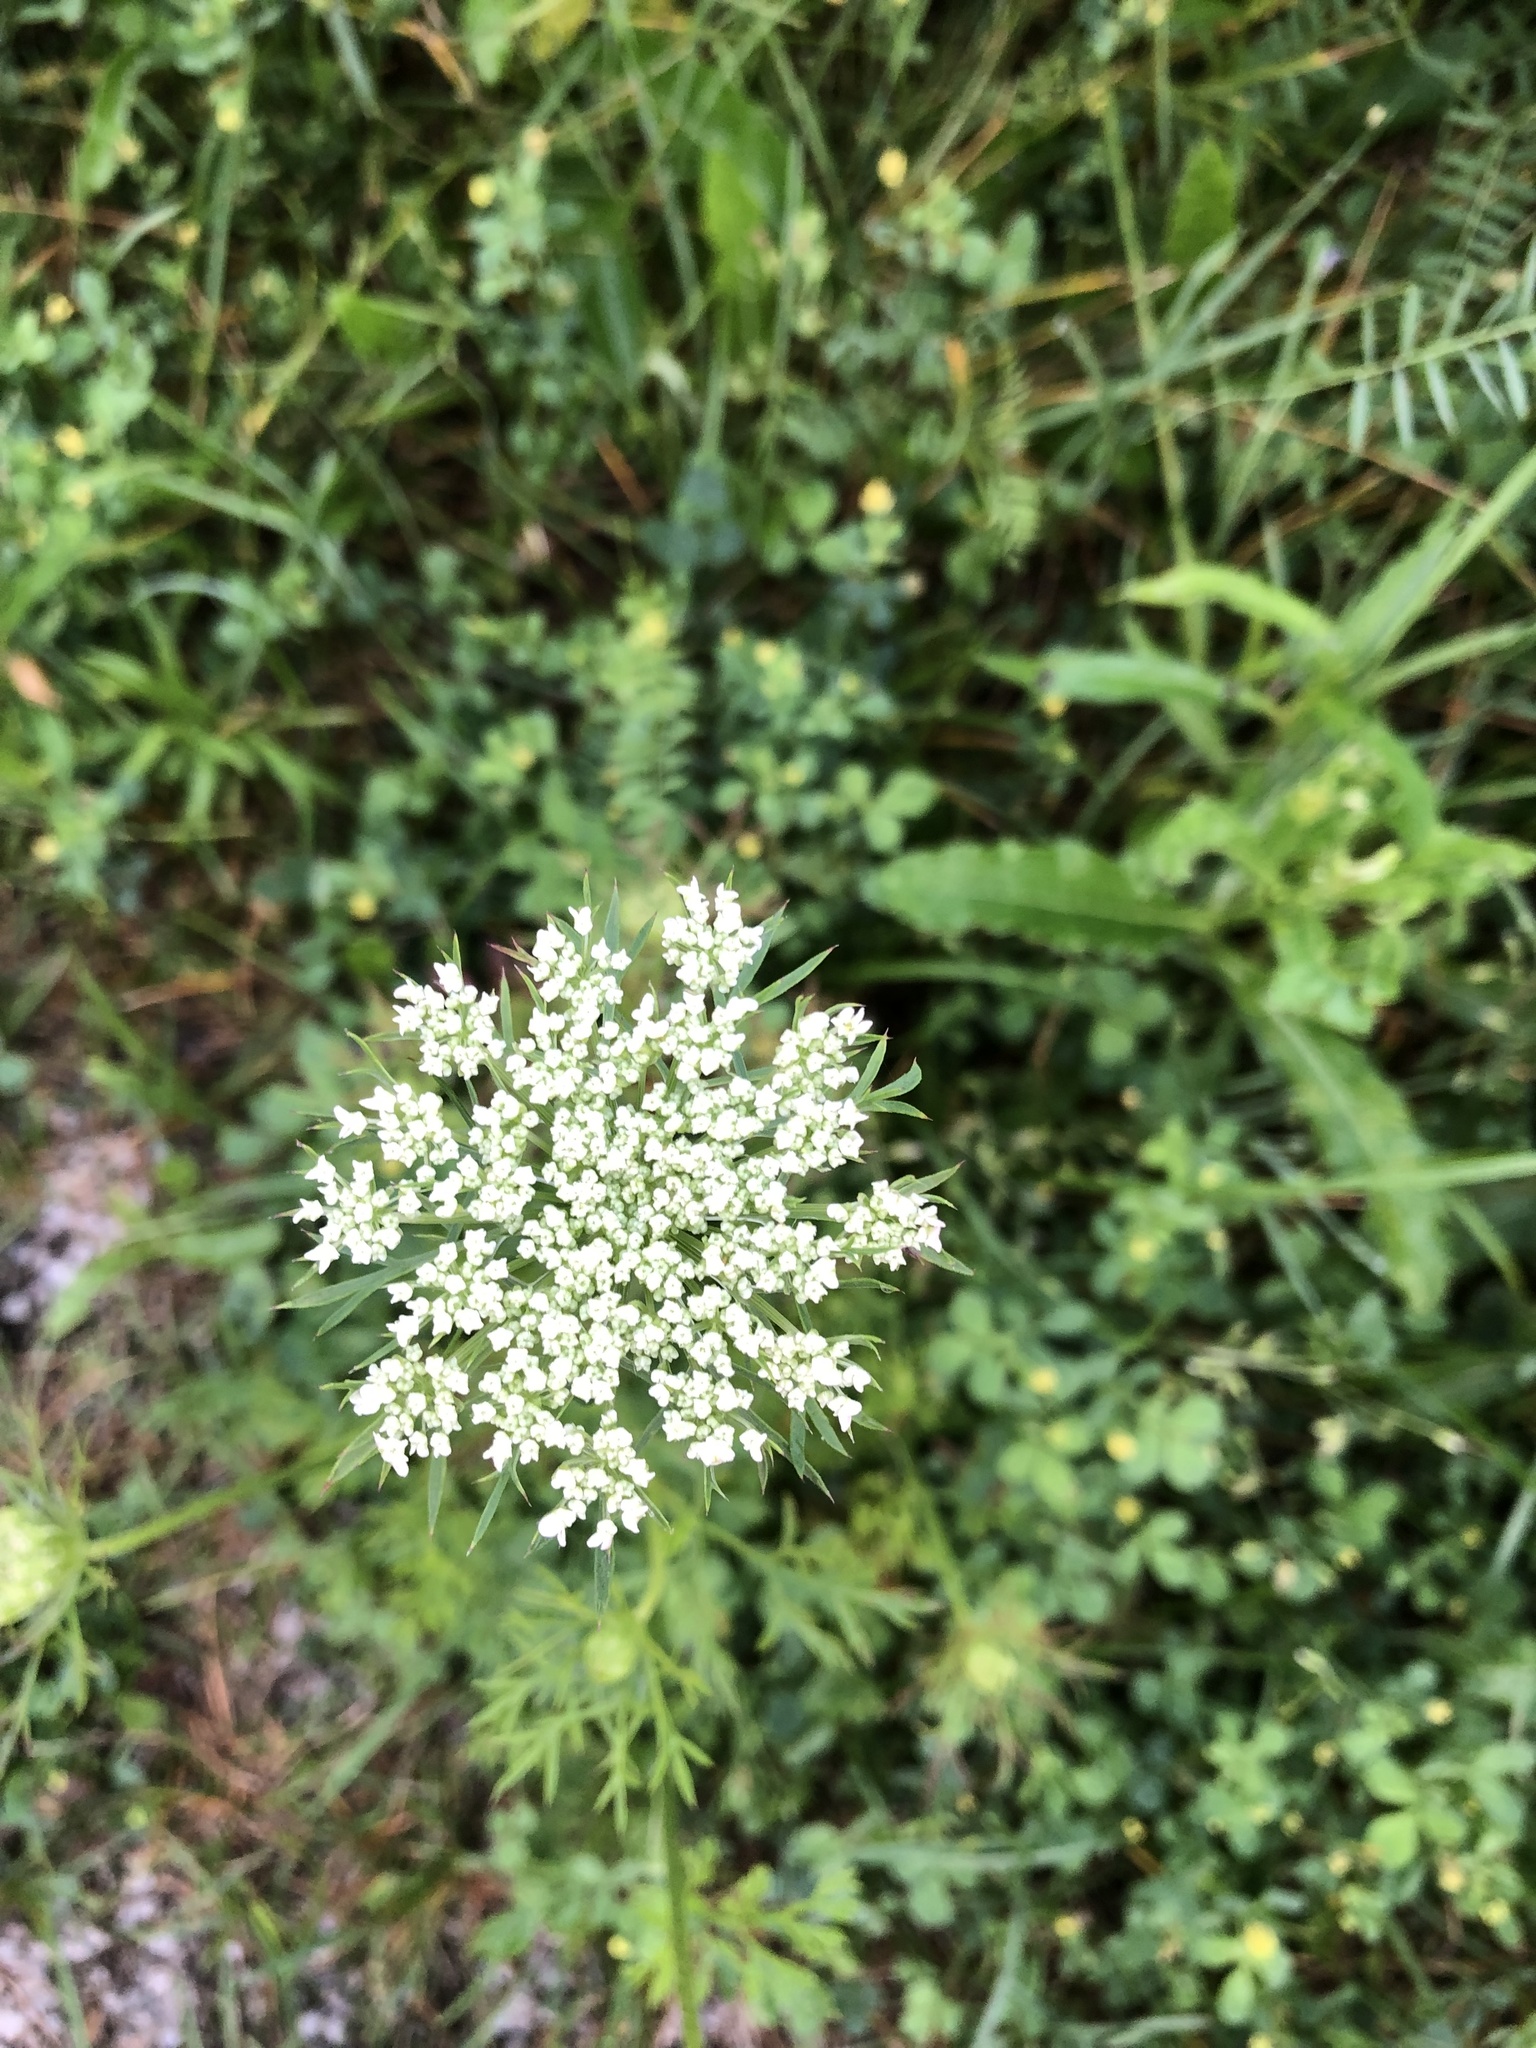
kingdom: Plantae
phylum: Tracheophyta
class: Magnoliopsida
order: Apiales
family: Apiaceae
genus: Daucus
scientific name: Daucus carota
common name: Wild carrot
